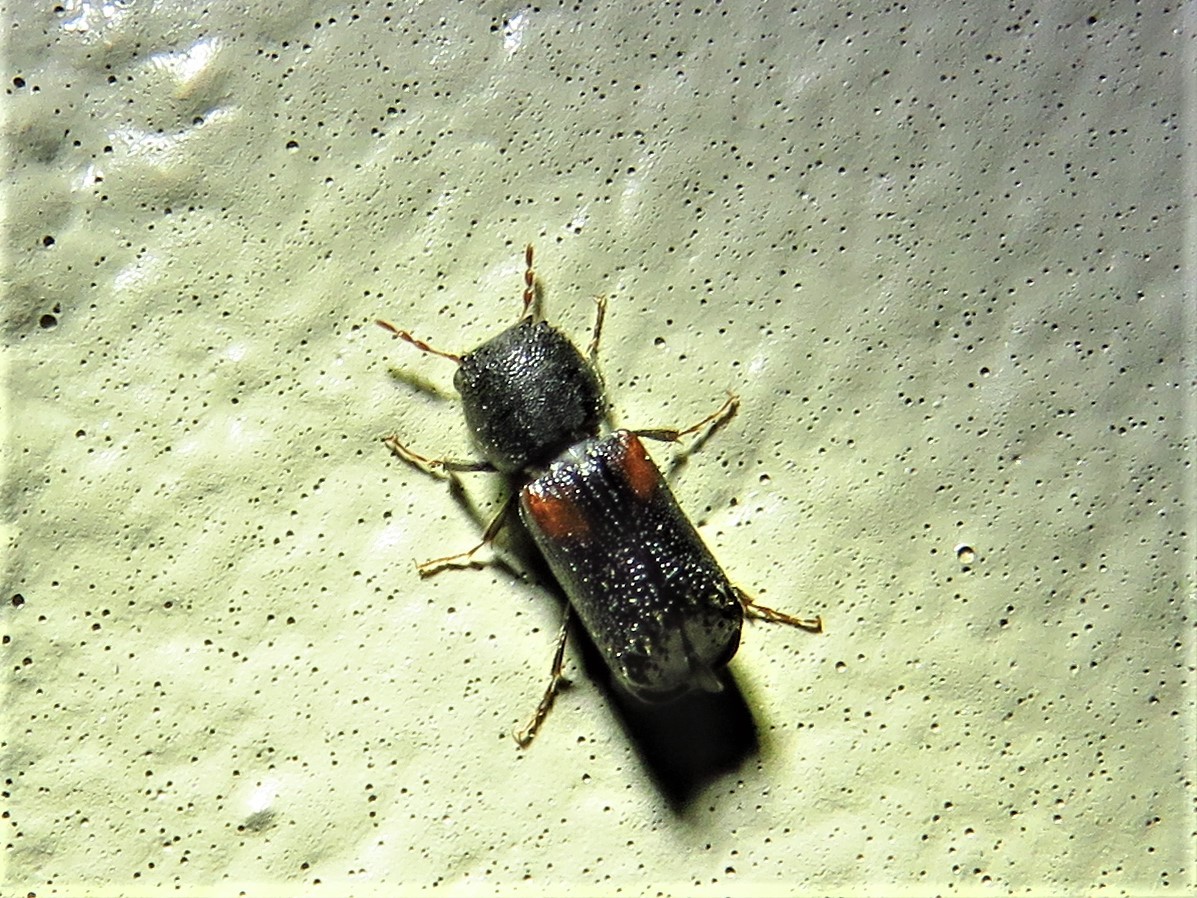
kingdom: Animalia
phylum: Arthropoda
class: Insecta
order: Coleoptera
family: Bostrichidae
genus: Xylobiops
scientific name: Xylobiops basilaris
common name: Red-shouldered bostrichid
